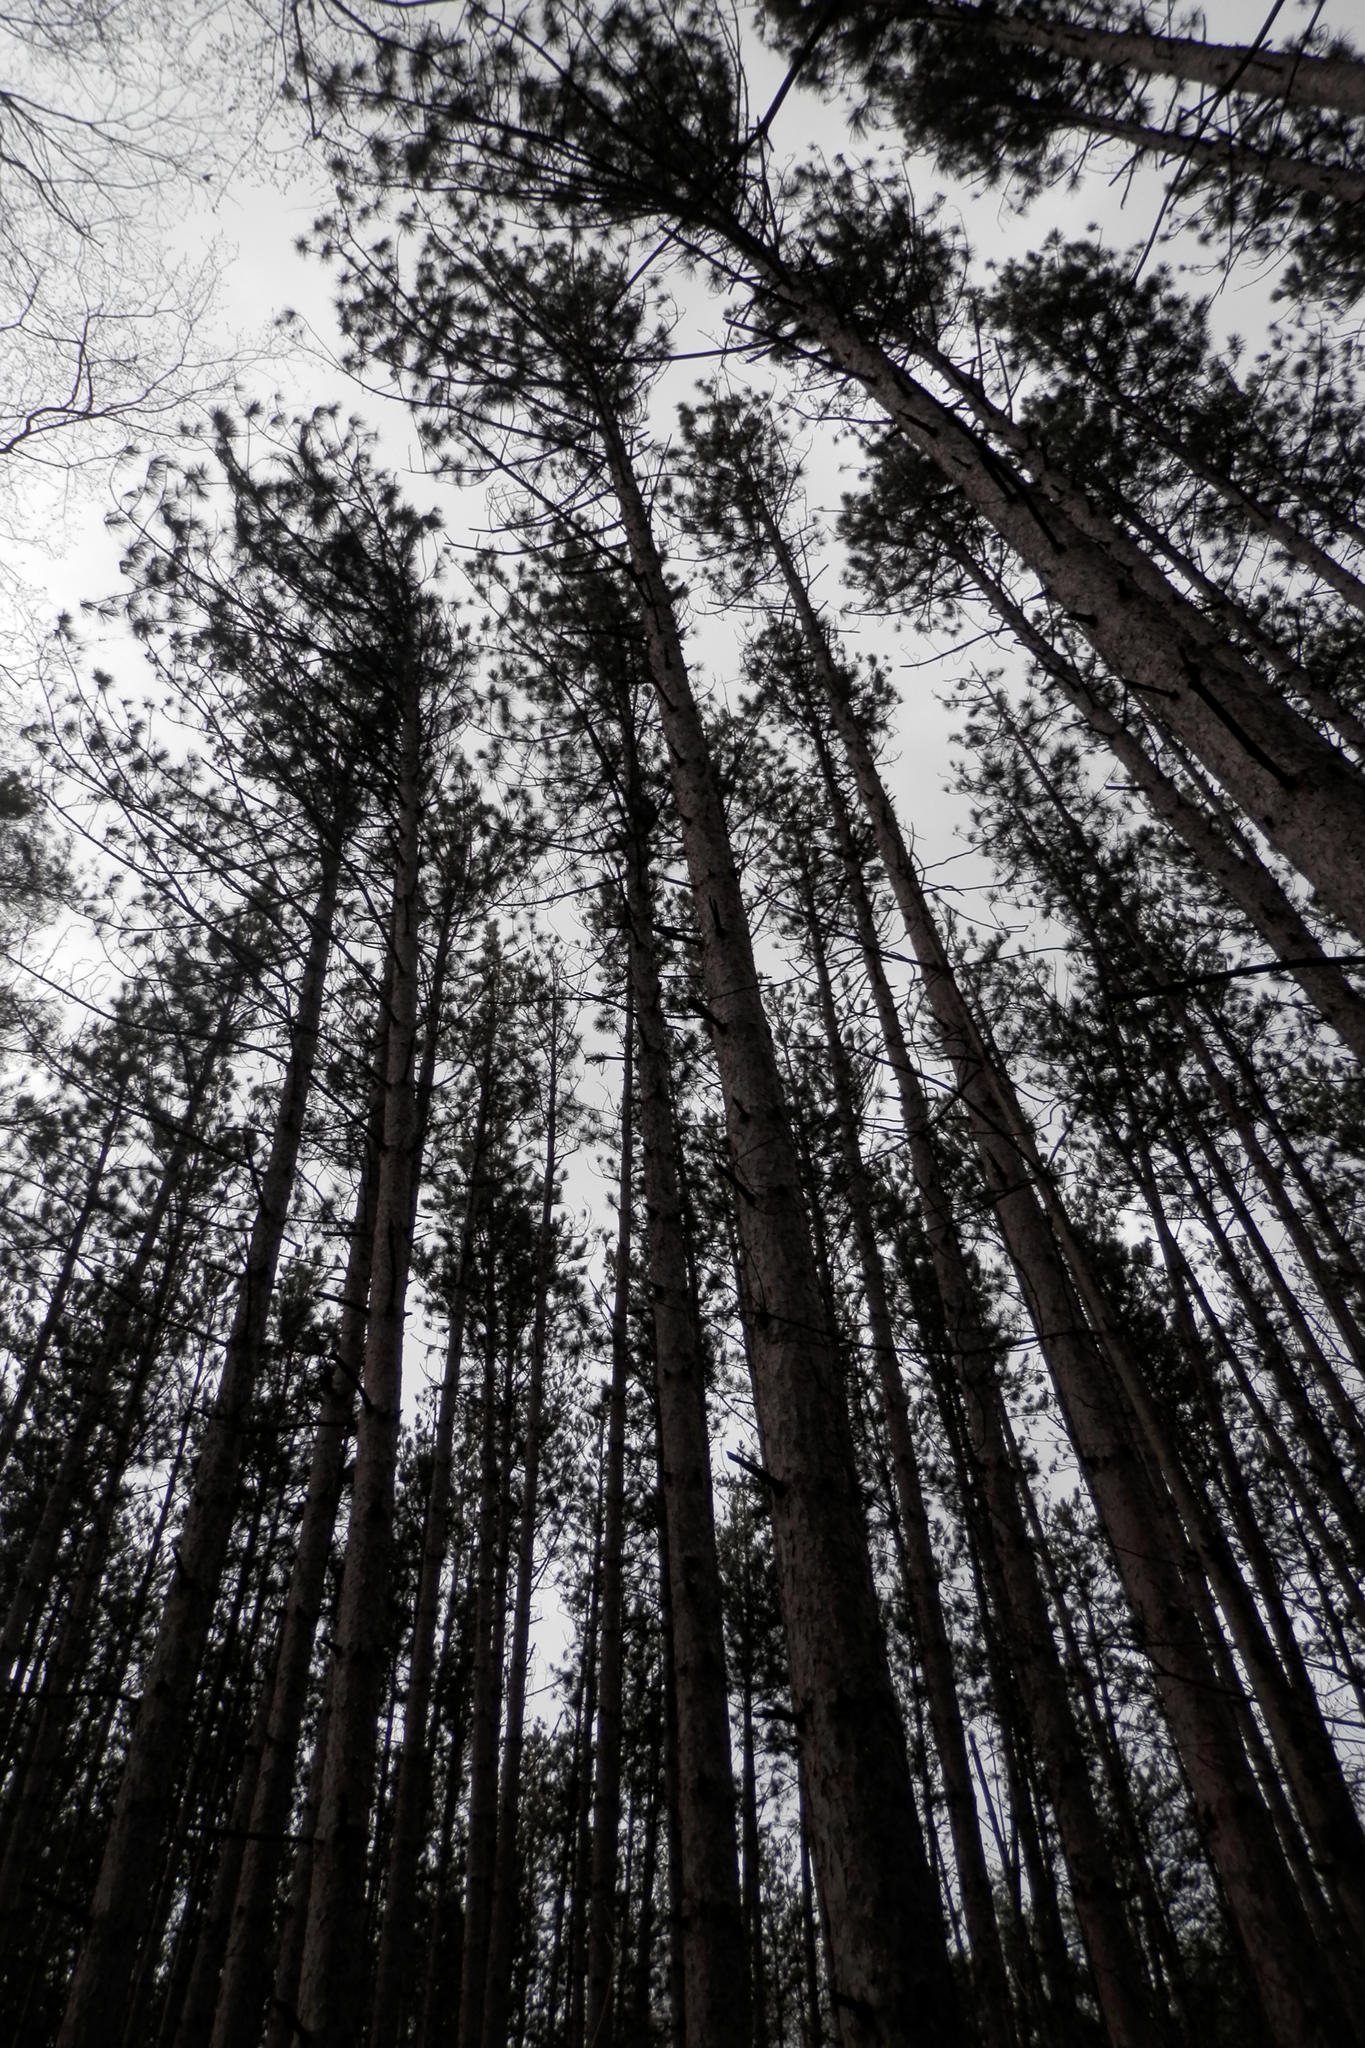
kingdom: Plantae
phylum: Tracheophyta
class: Pinopsida
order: Pinales
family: Pinaceae
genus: Pinus
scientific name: Pinus resinosa
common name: Norway pine
